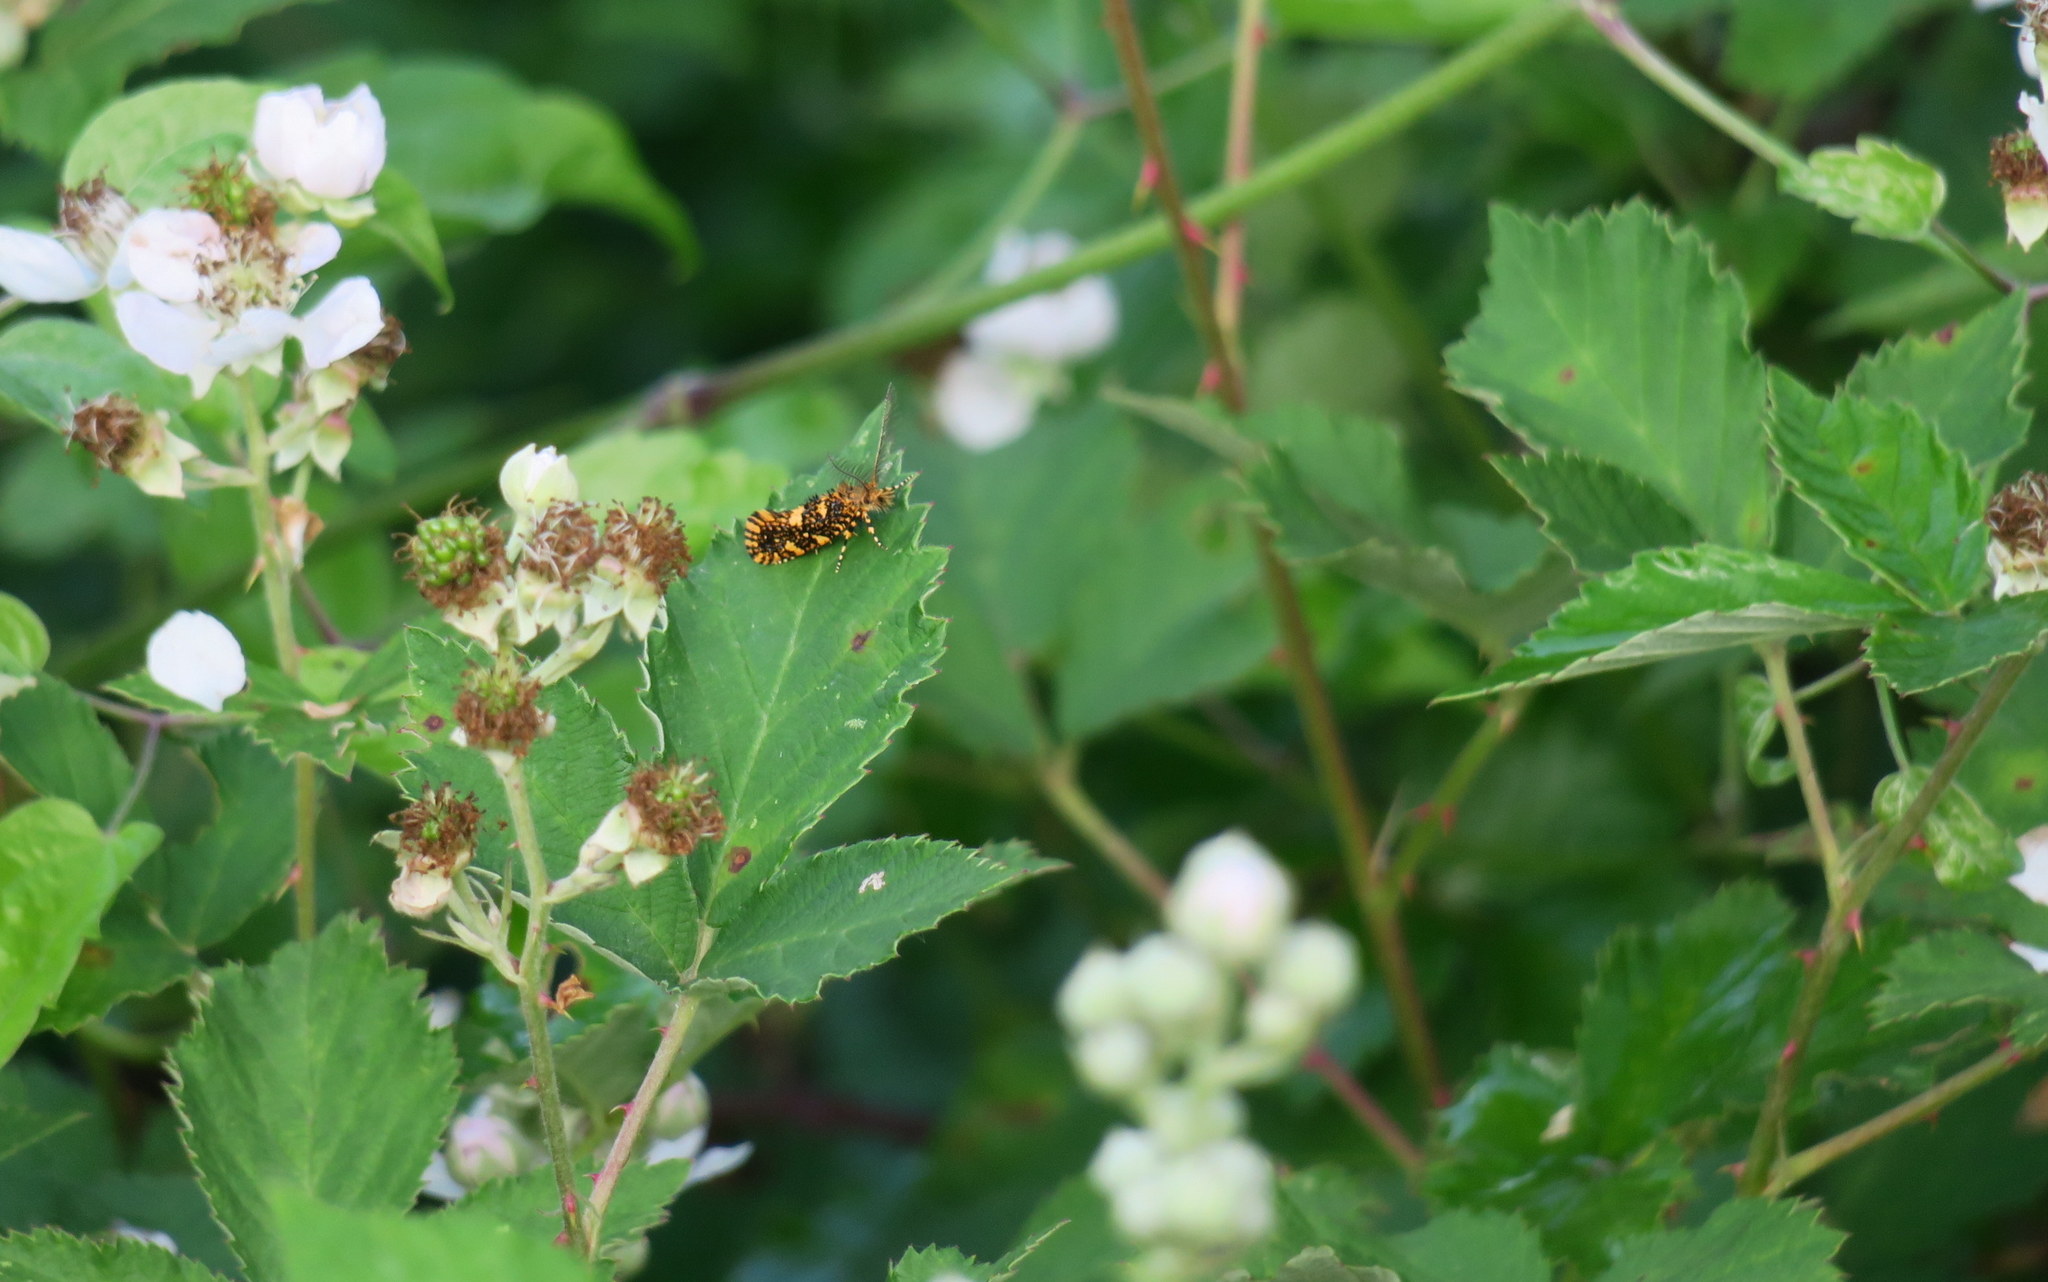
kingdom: Animalia
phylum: Arthropoda
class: Insecta
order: Lepidoptera
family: Tineidae
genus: Euplocamus
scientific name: Euplocamus ophisa
